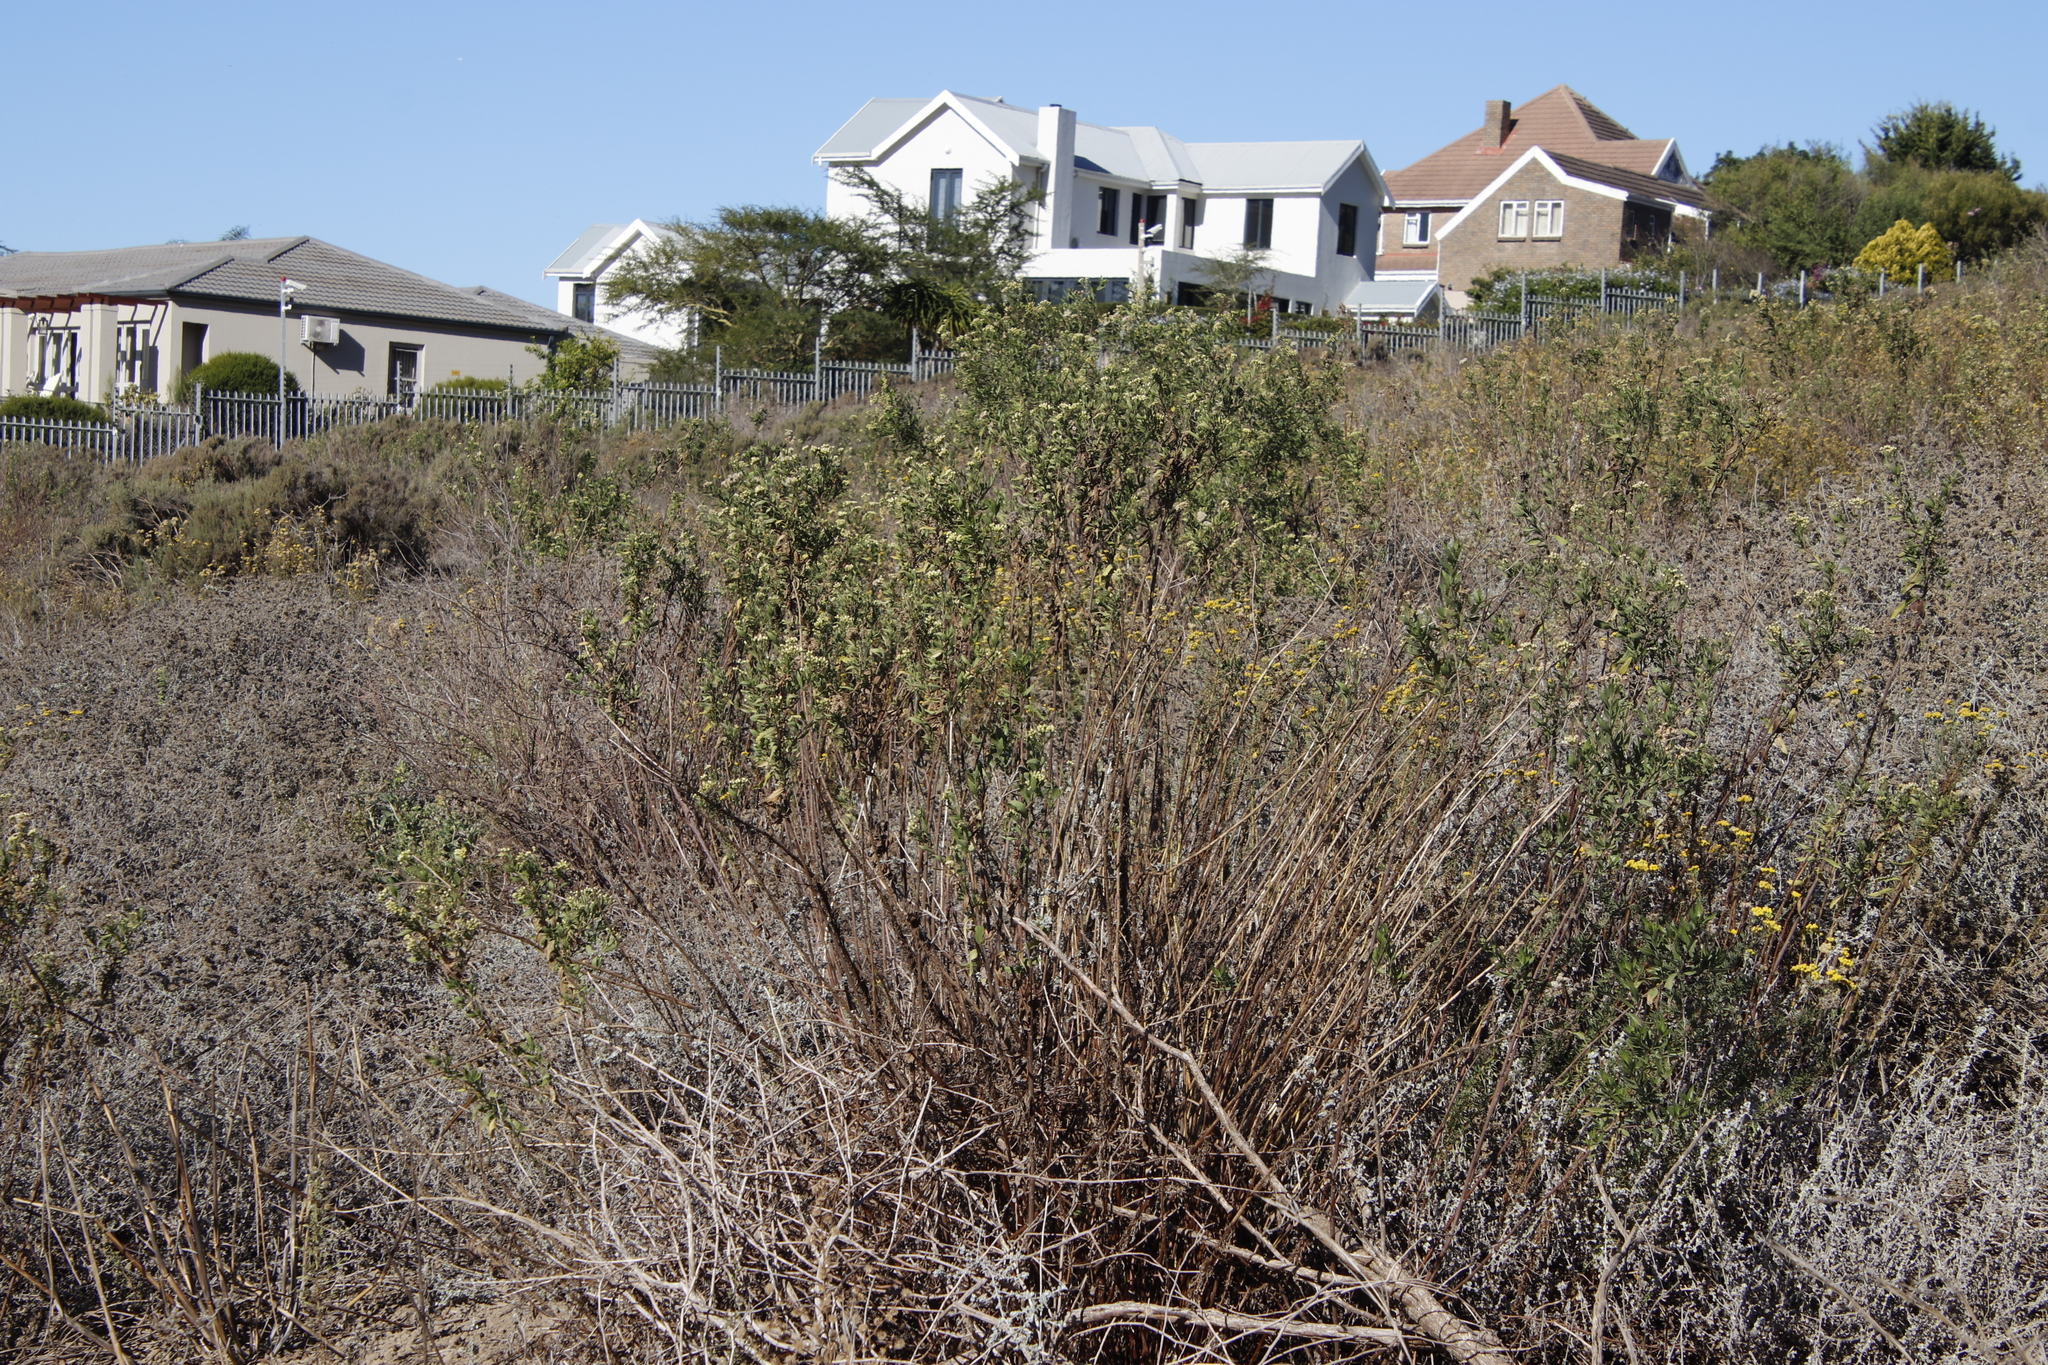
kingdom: Plantae
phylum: Tracheophyta
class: Magnoliopsida
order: Asterales
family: Asteraceae
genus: Nidorella
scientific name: Nidorella ivifolia
